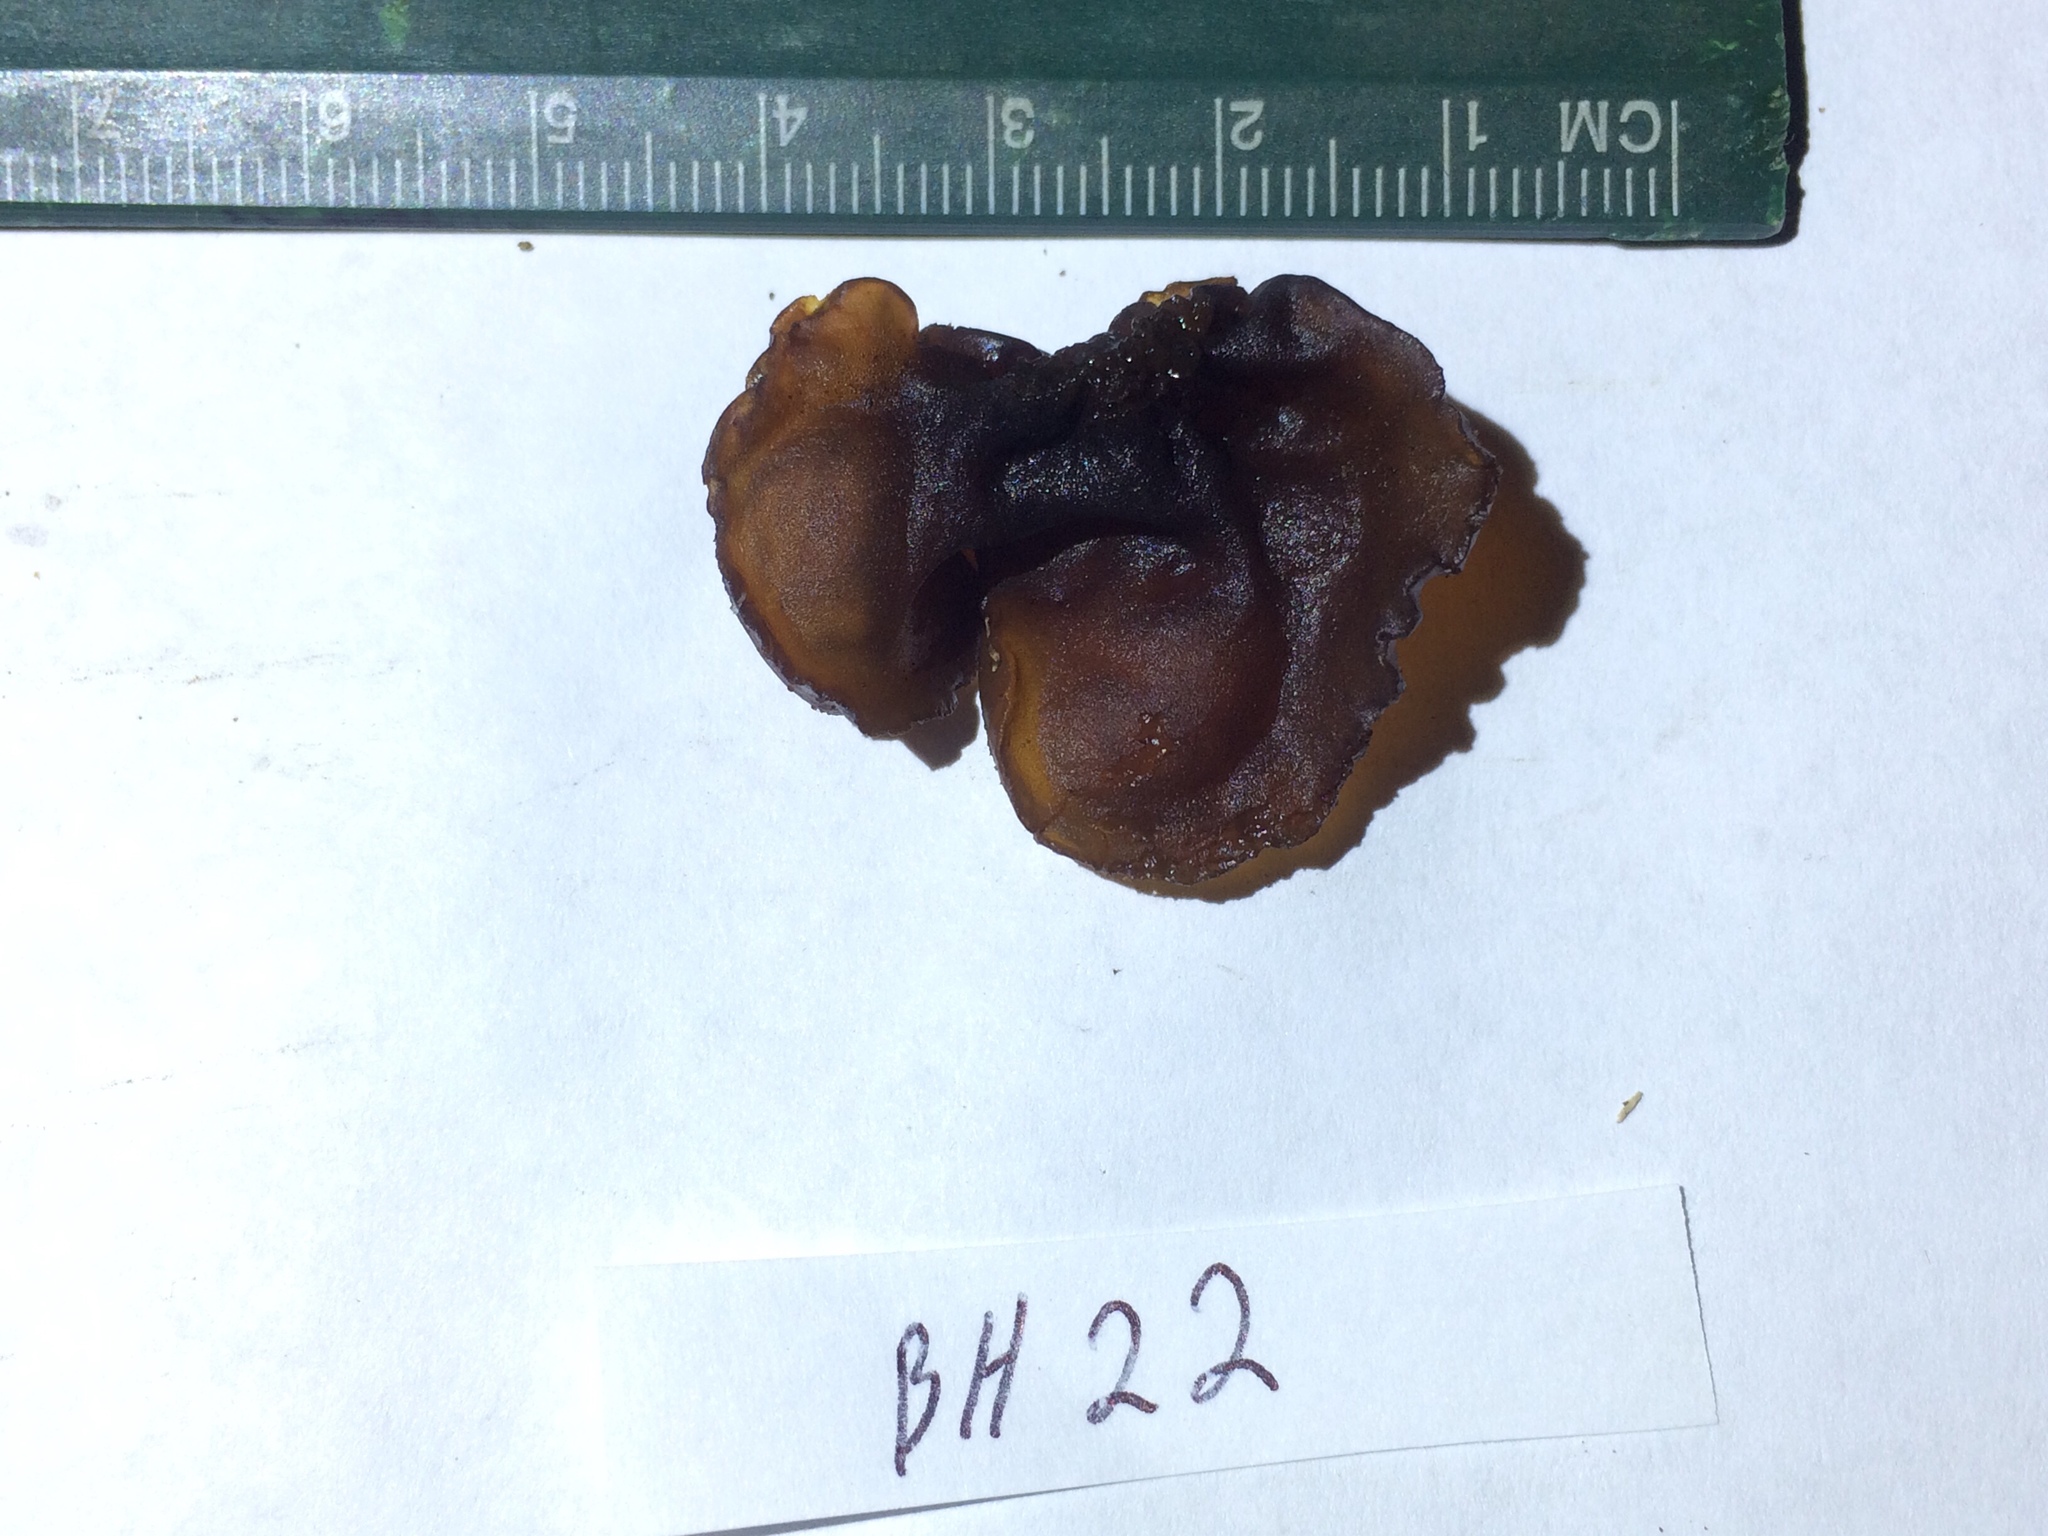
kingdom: Fungi
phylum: Basidiomycota
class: Agaricomycetes
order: Auriculariales
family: Auriculariaceae
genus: Exidia
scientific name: Exidia
